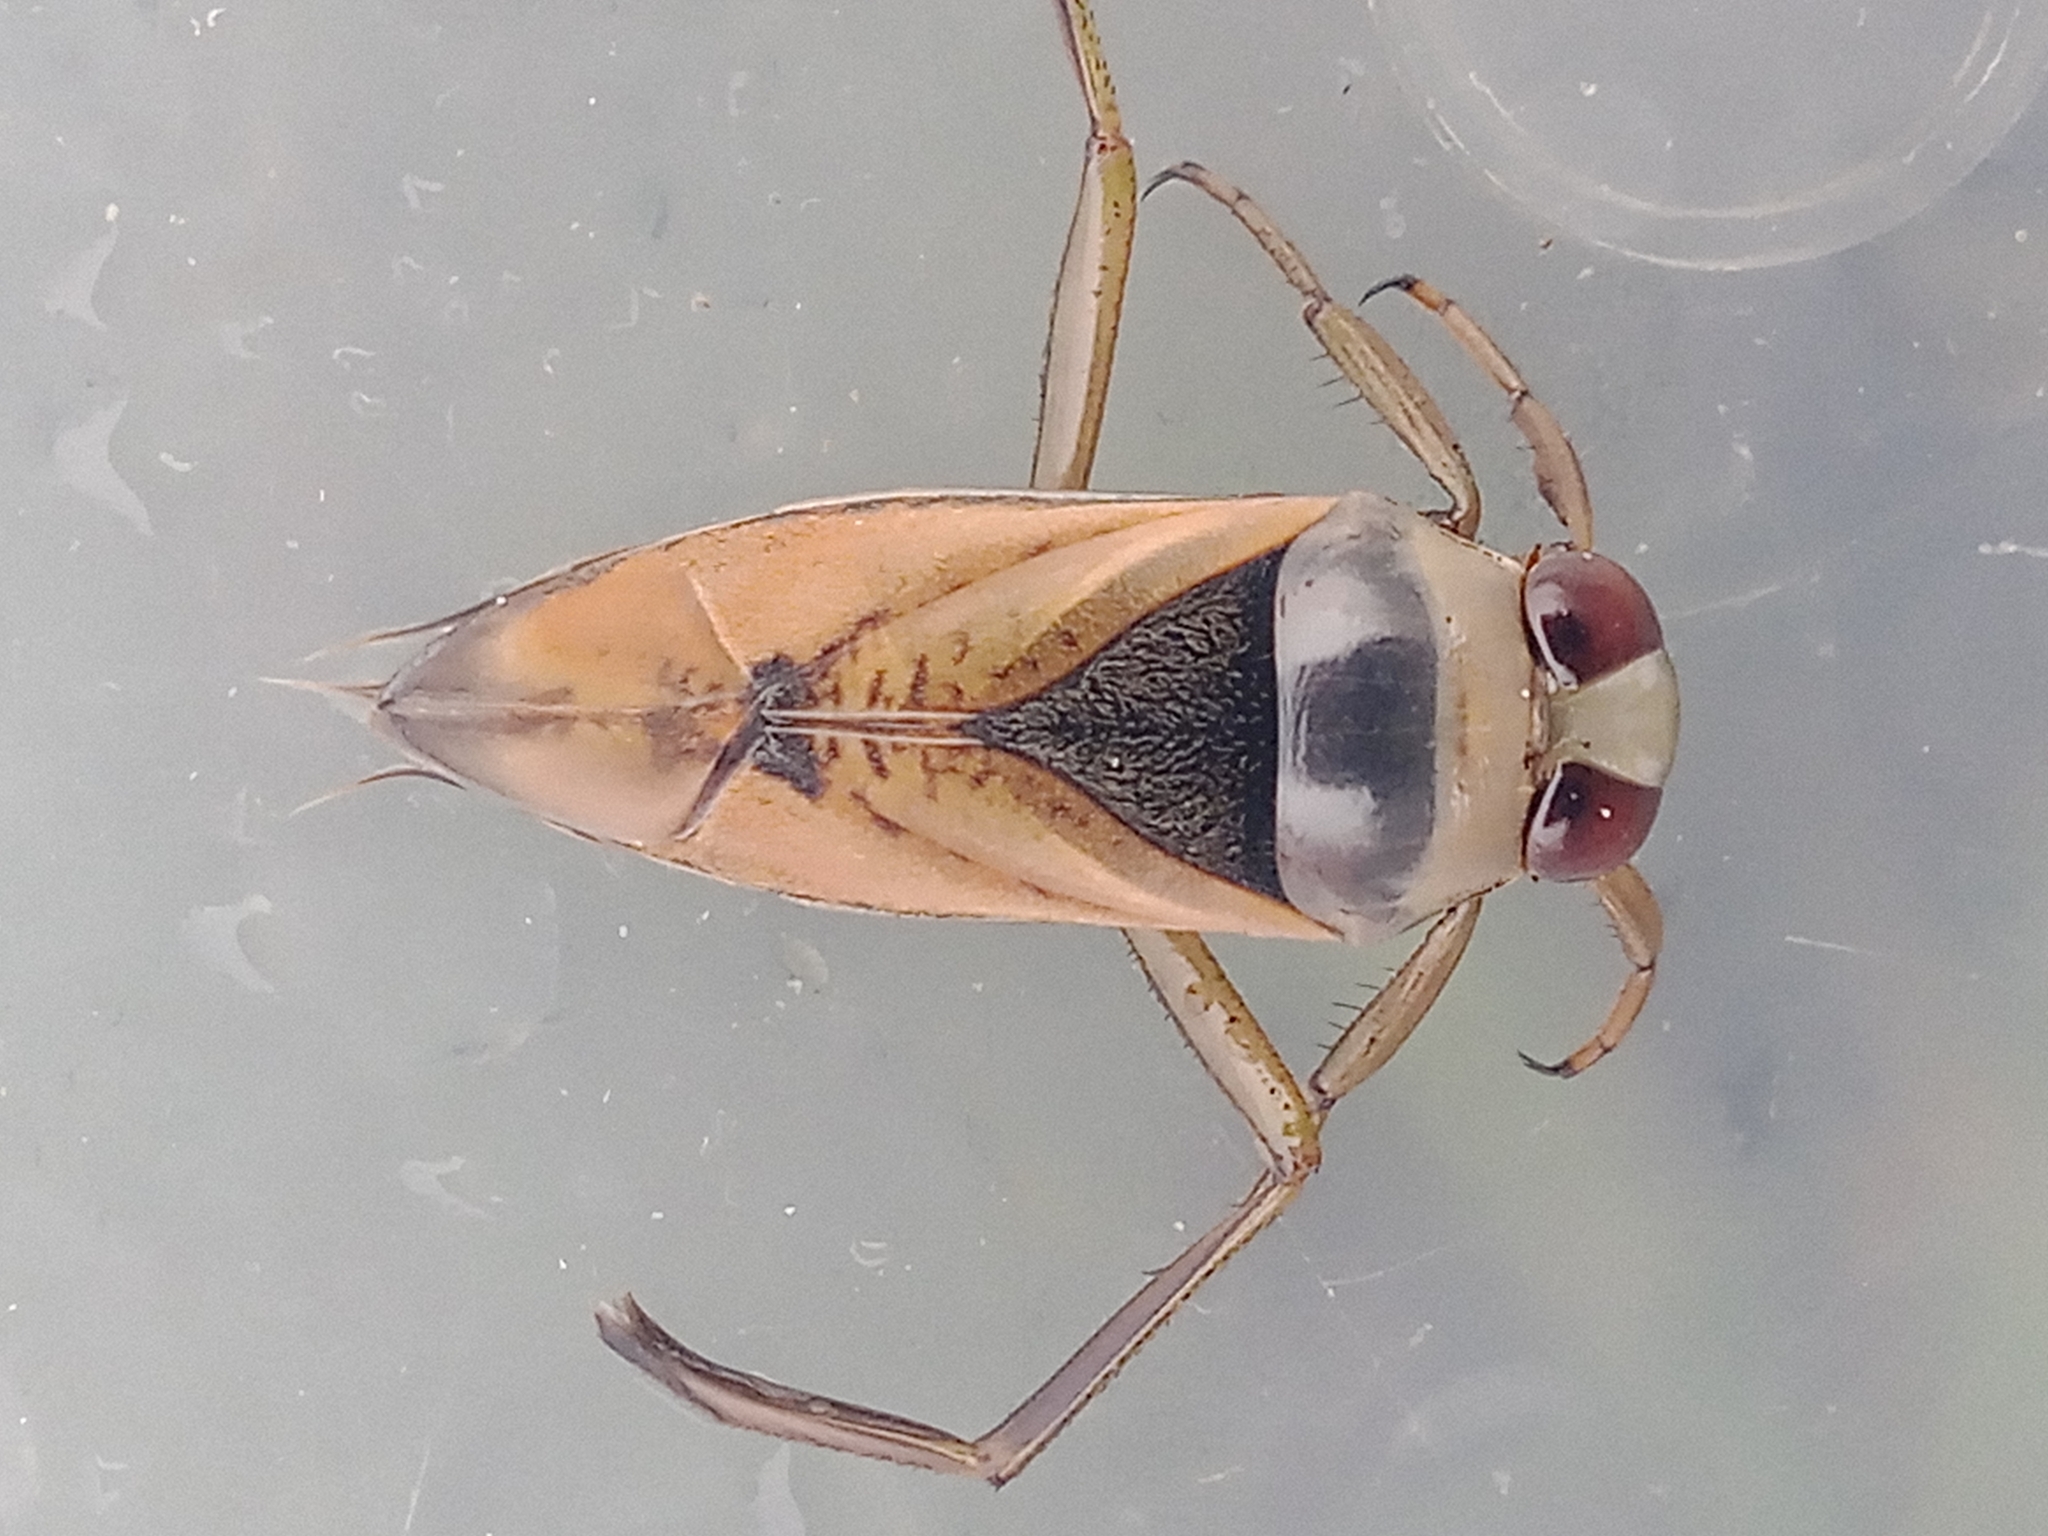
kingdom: Animalia
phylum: Arthropoda
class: Insecta
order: Hemiptera
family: Notonectidae
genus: Notonecta
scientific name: Notonecta glauca
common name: Common water-boatman
